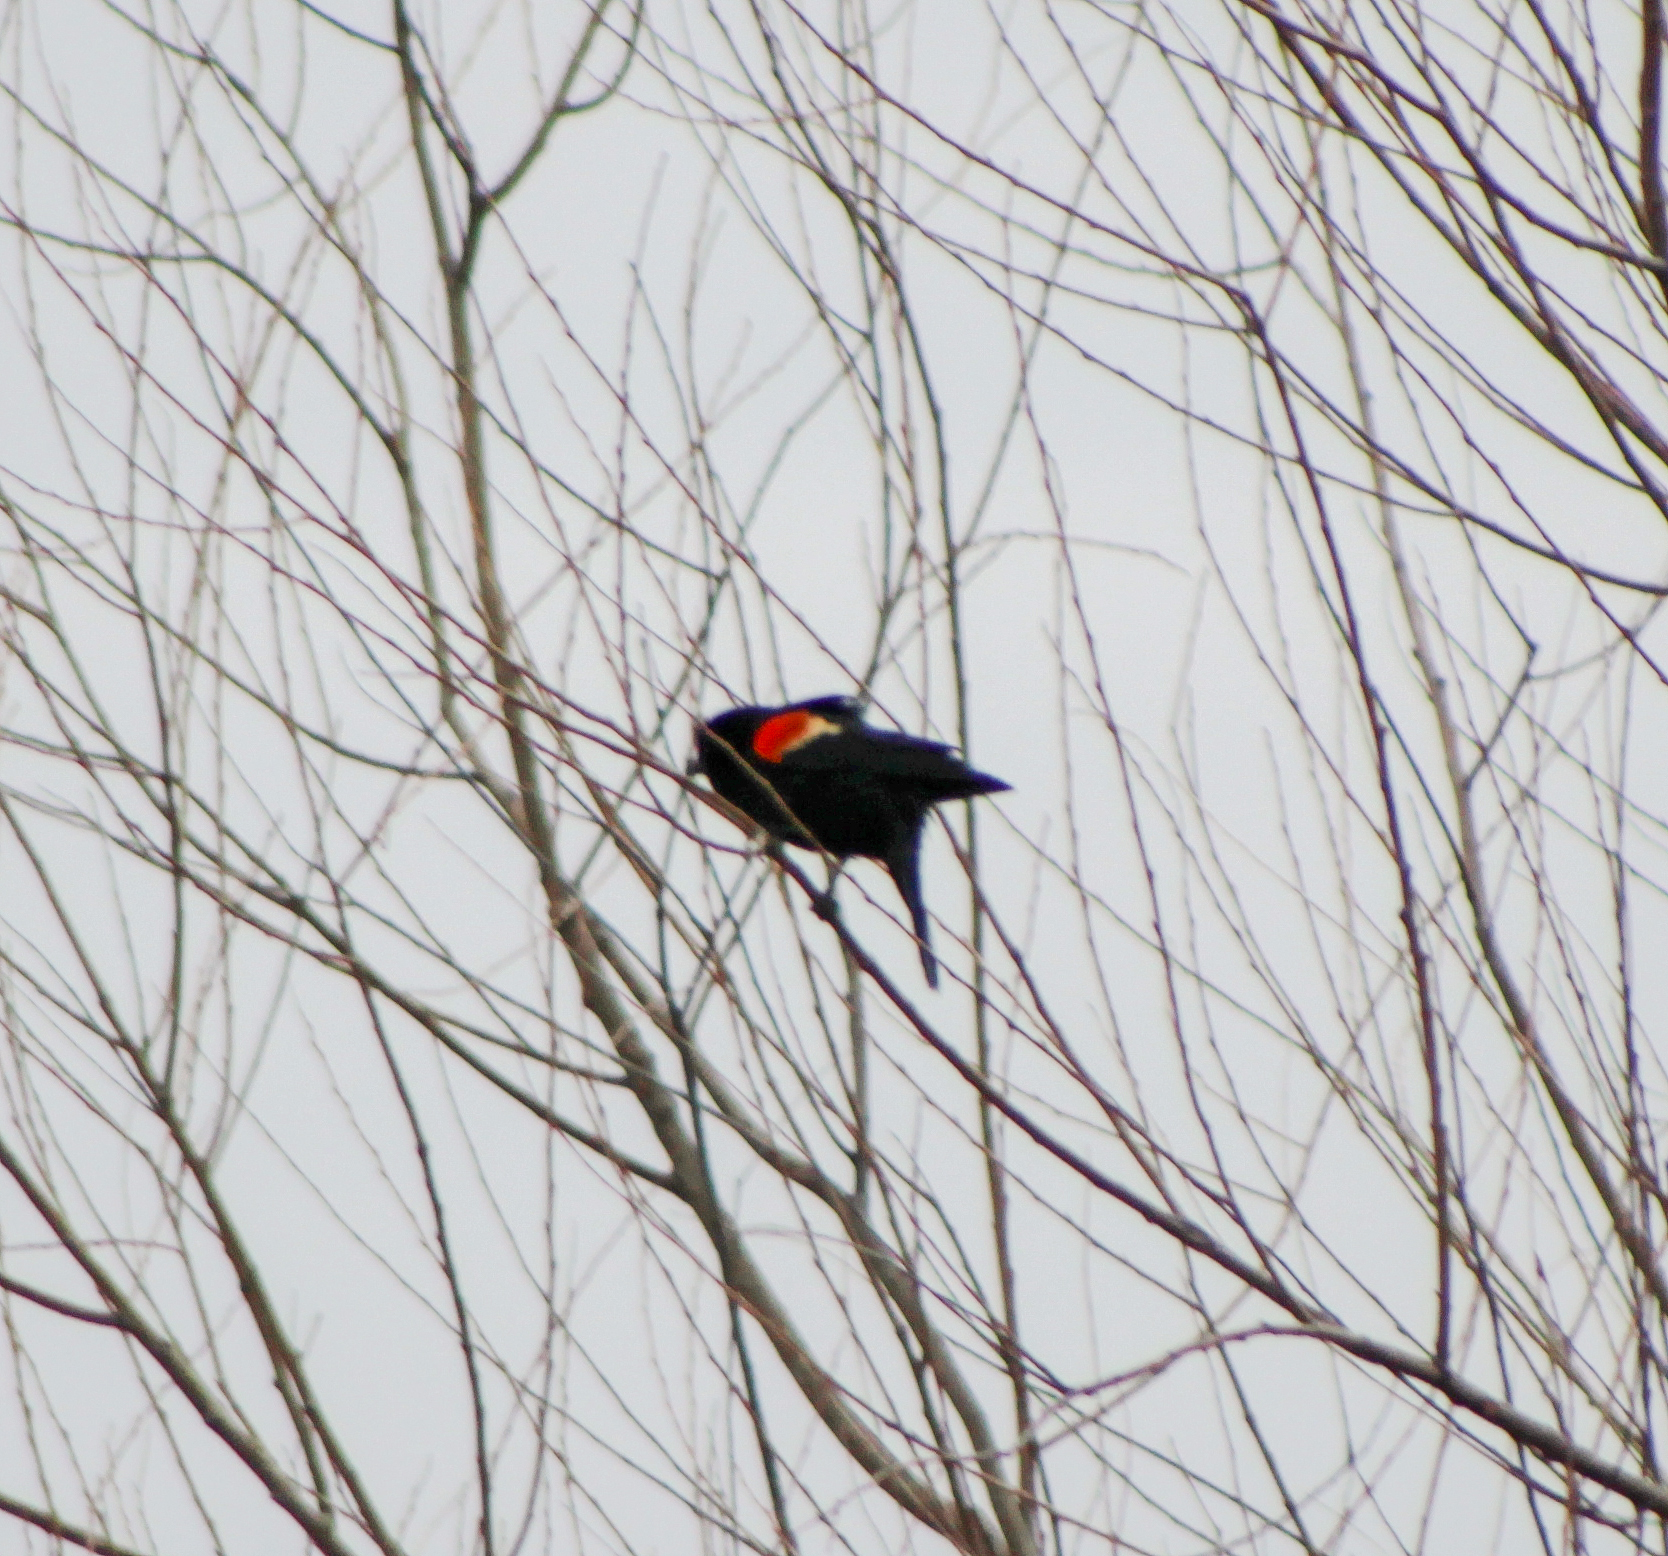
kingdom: Animalia
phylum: Chordata
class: Aves
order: Passeriformes
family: Icteridae
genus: Agelaius
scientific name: Agelaius phoeniceus
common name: Red-winged blackbird
